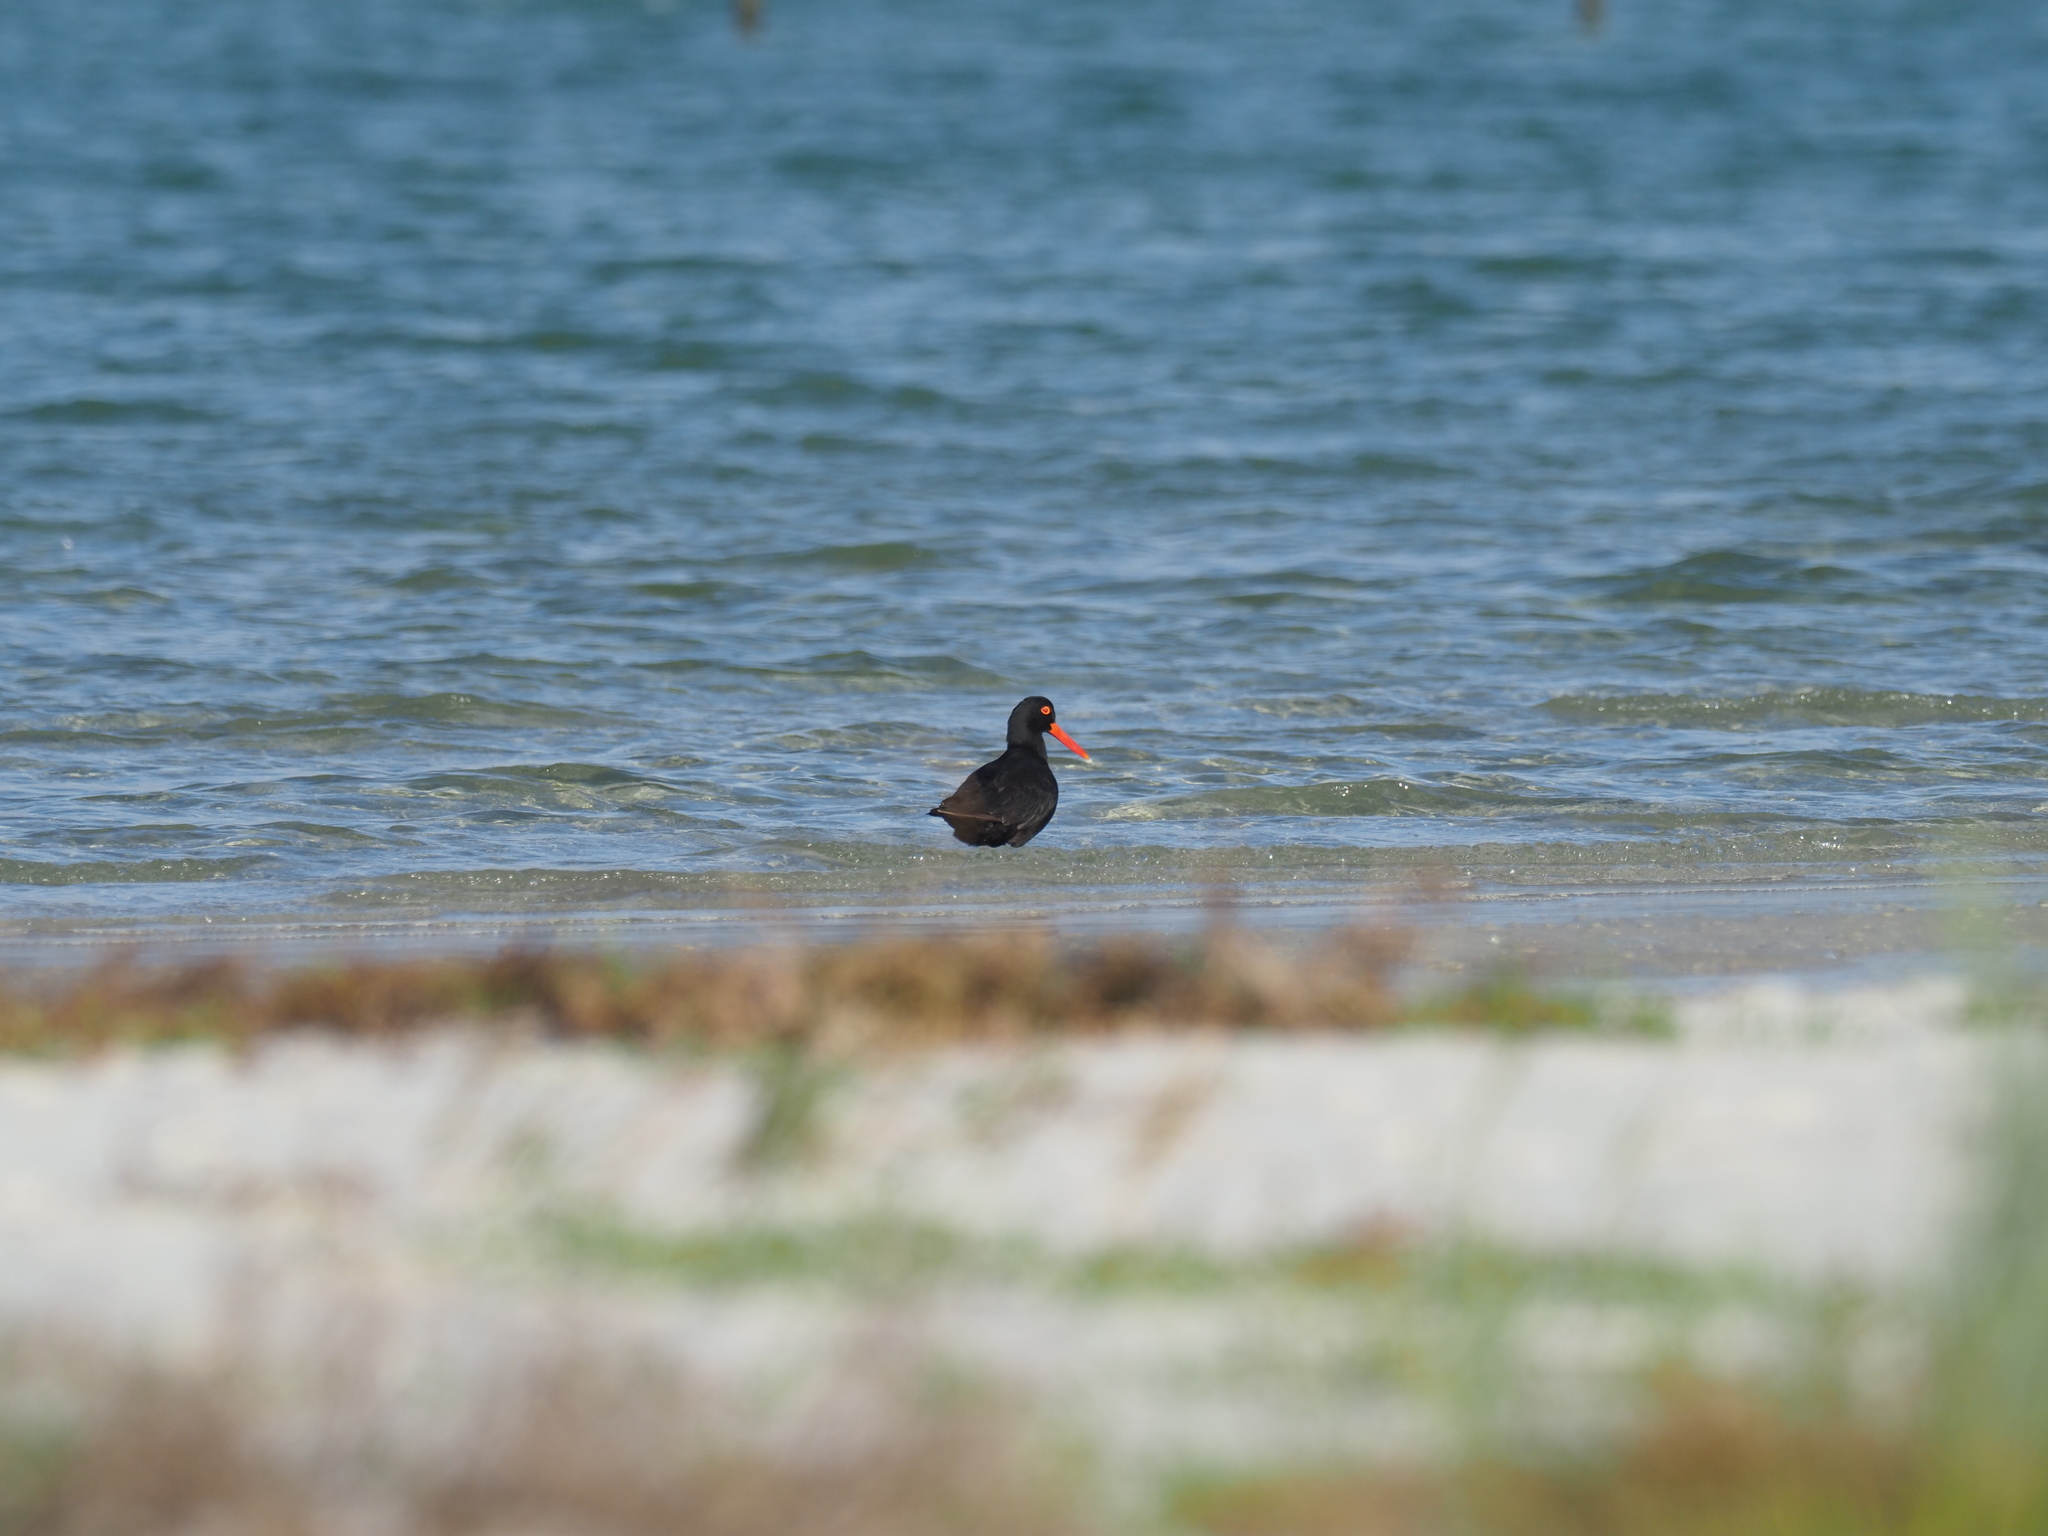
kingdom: Animalia
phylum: Chordata
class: Aves
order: Charadriiformes
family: Haematopodidae
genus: Haematopus
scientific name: Haematopus moquini
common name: African oystercatcher
